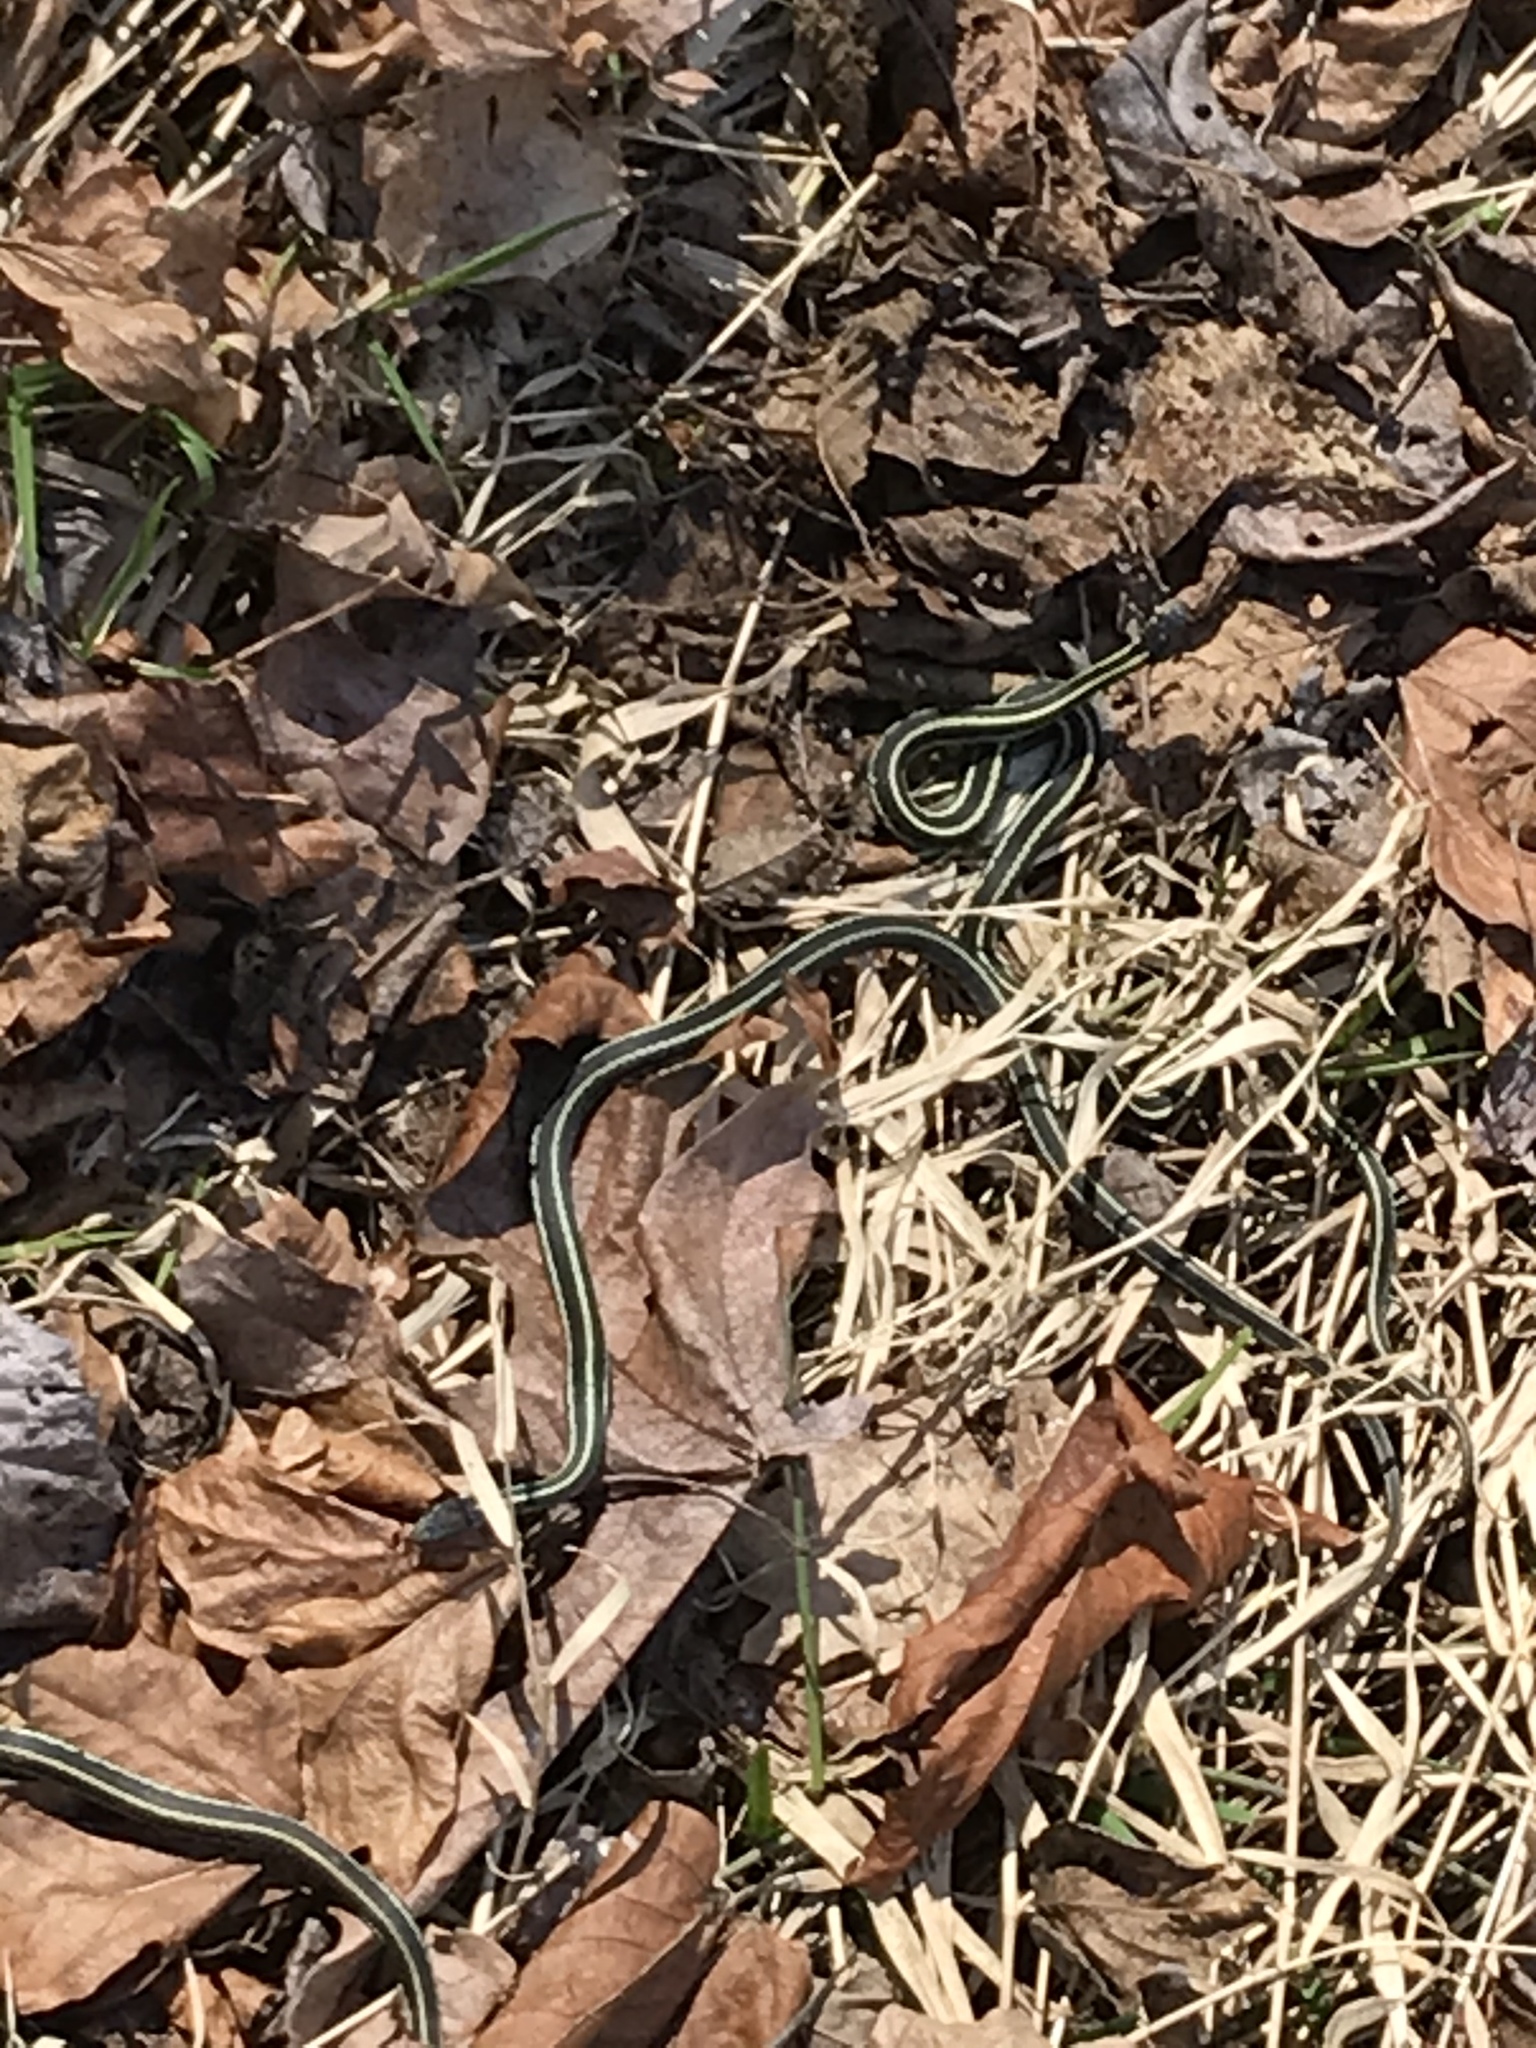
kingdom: Animalia
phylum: Chordata
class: Squamata
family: Colubridae
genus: Thamnophis
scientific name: Thamnophis sirtalis
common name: Common garter snake
